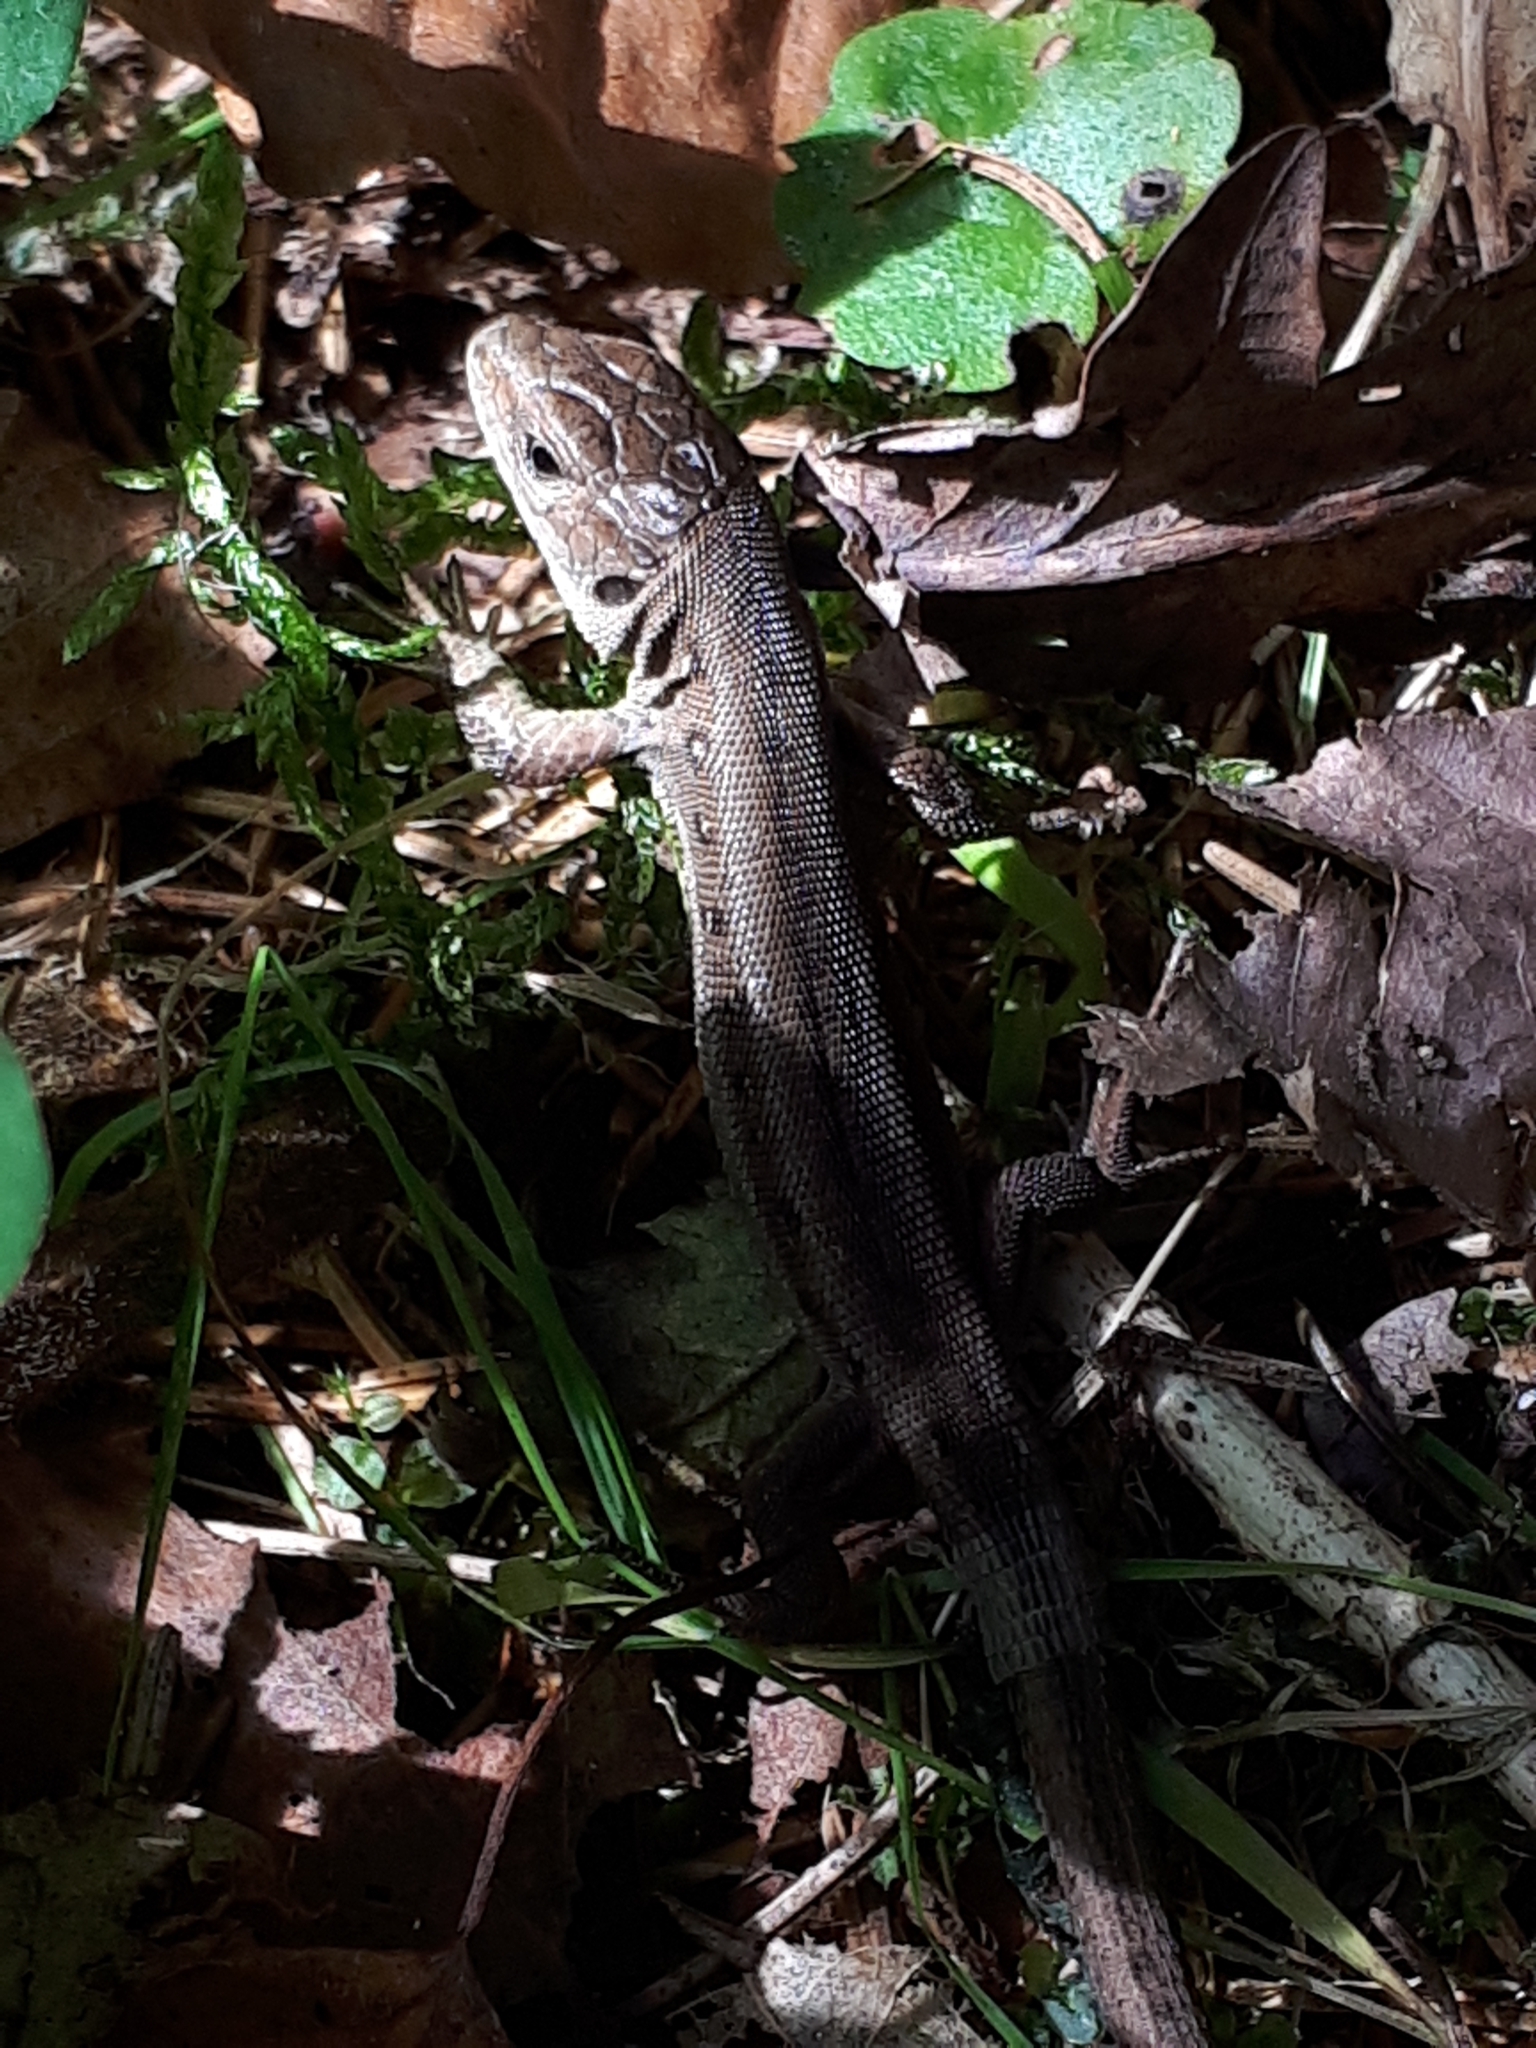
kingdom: Animalia
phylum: Chordata
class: Squamata
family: Lacertidae
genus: Lacerta
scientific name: Lacerta agilis
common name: Sand lizard
